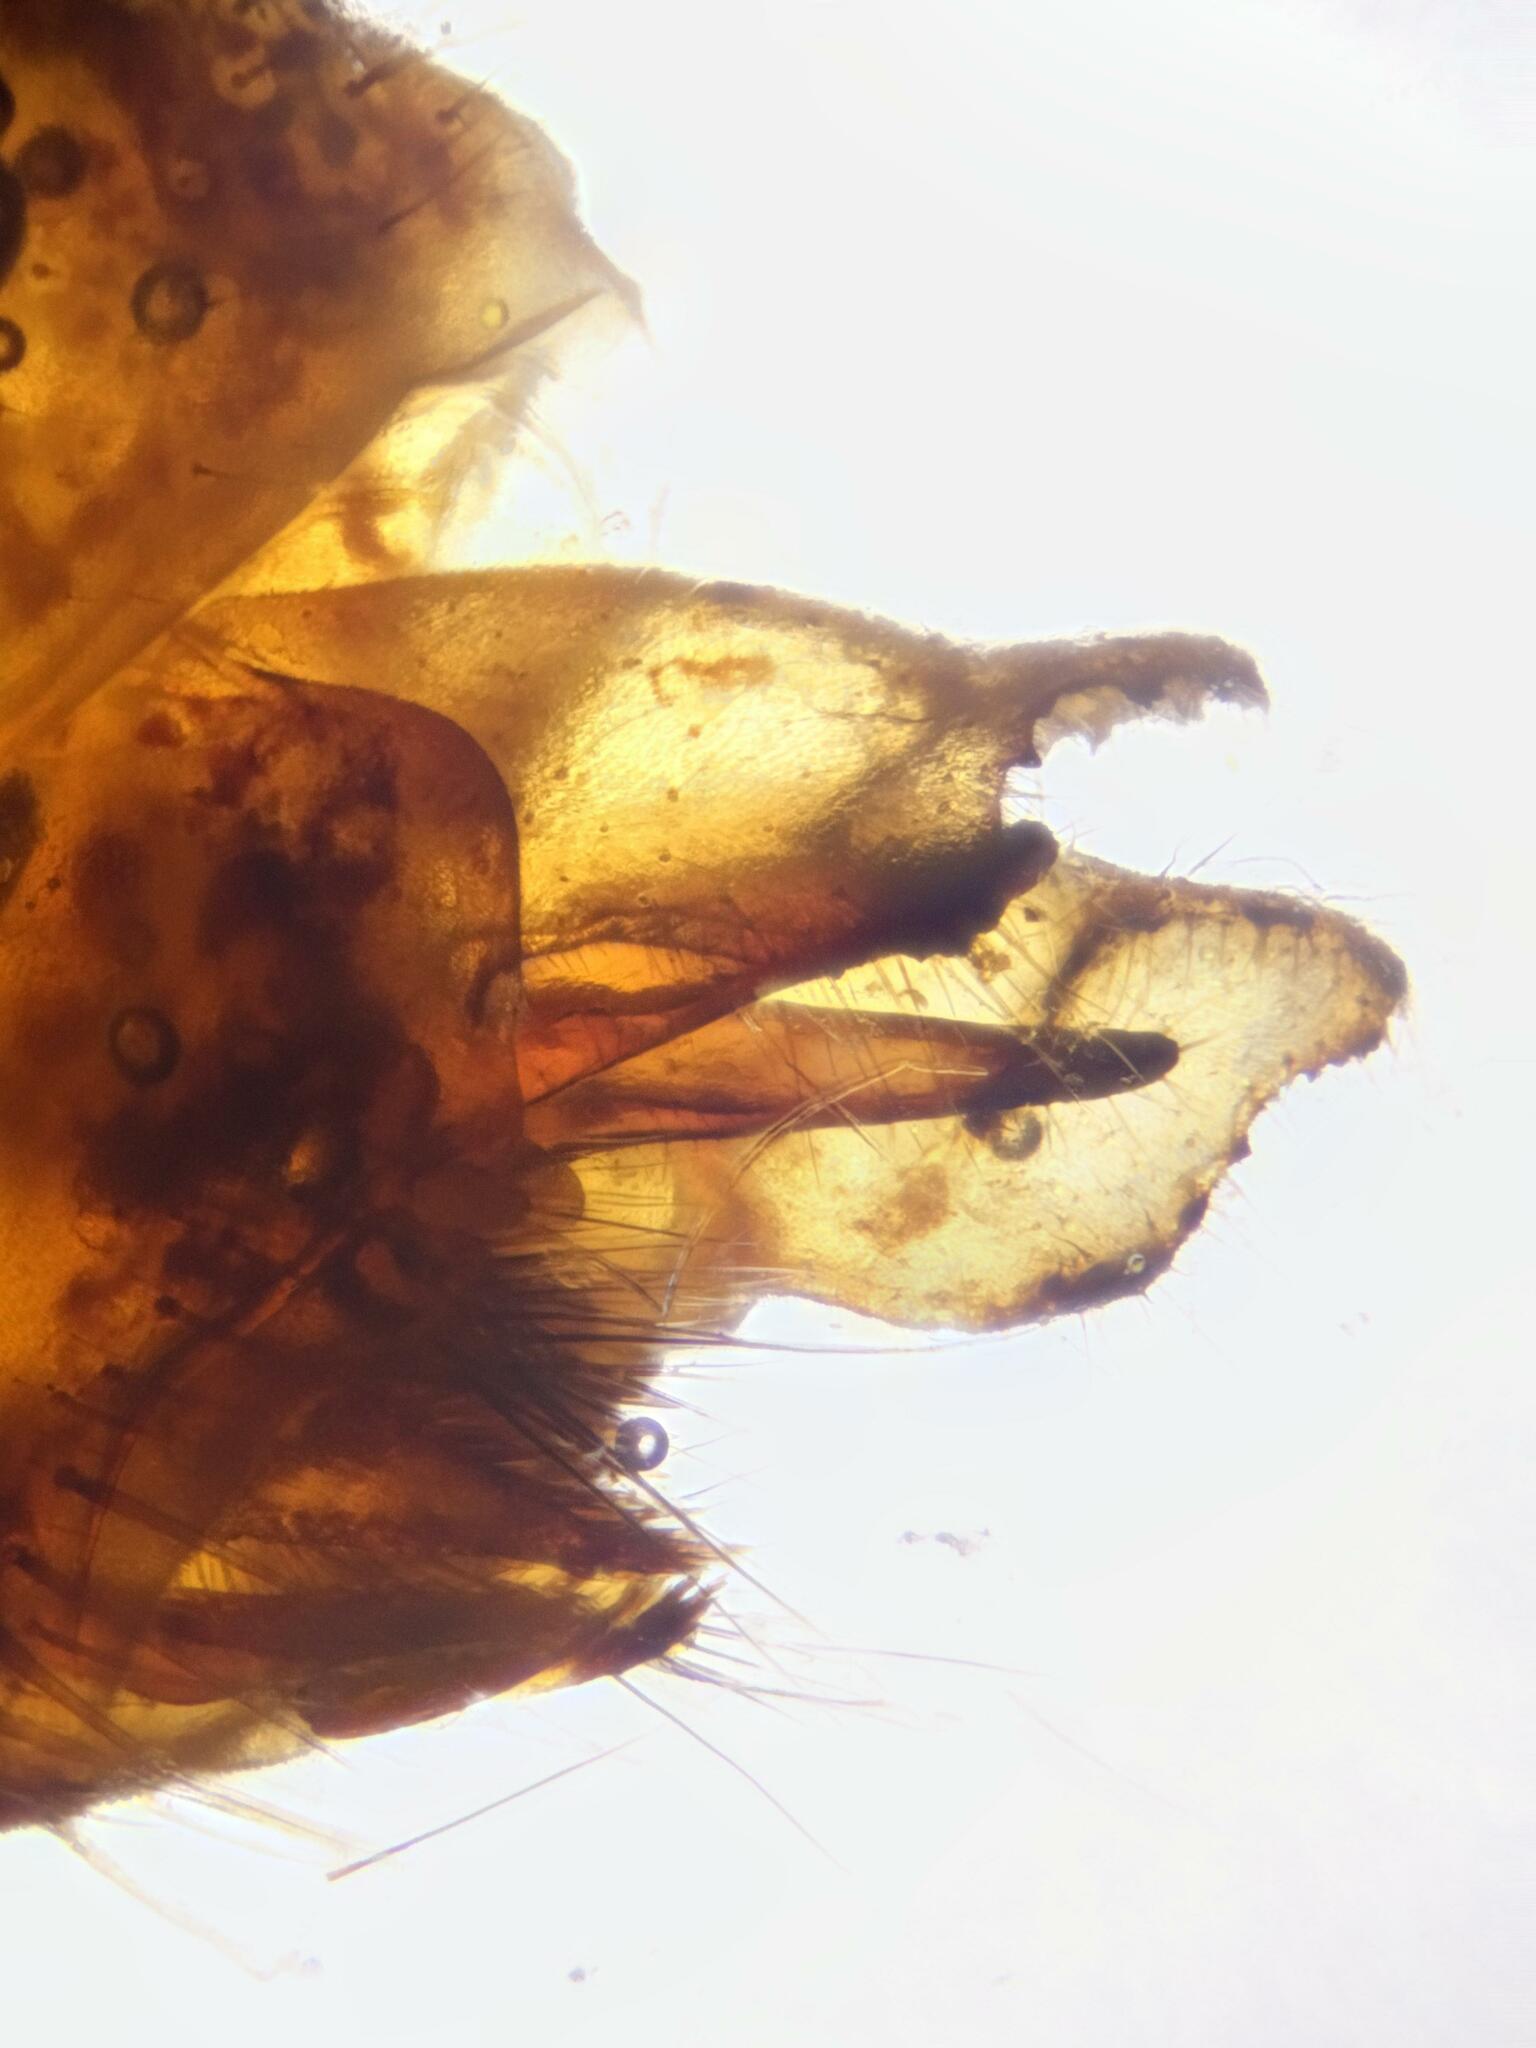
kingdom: Animalia
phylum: Arthropoda
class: Insecta
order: Trichoptera
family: Limnephilidae
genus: Limnephilus
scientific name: Limnephilus flavicornis
